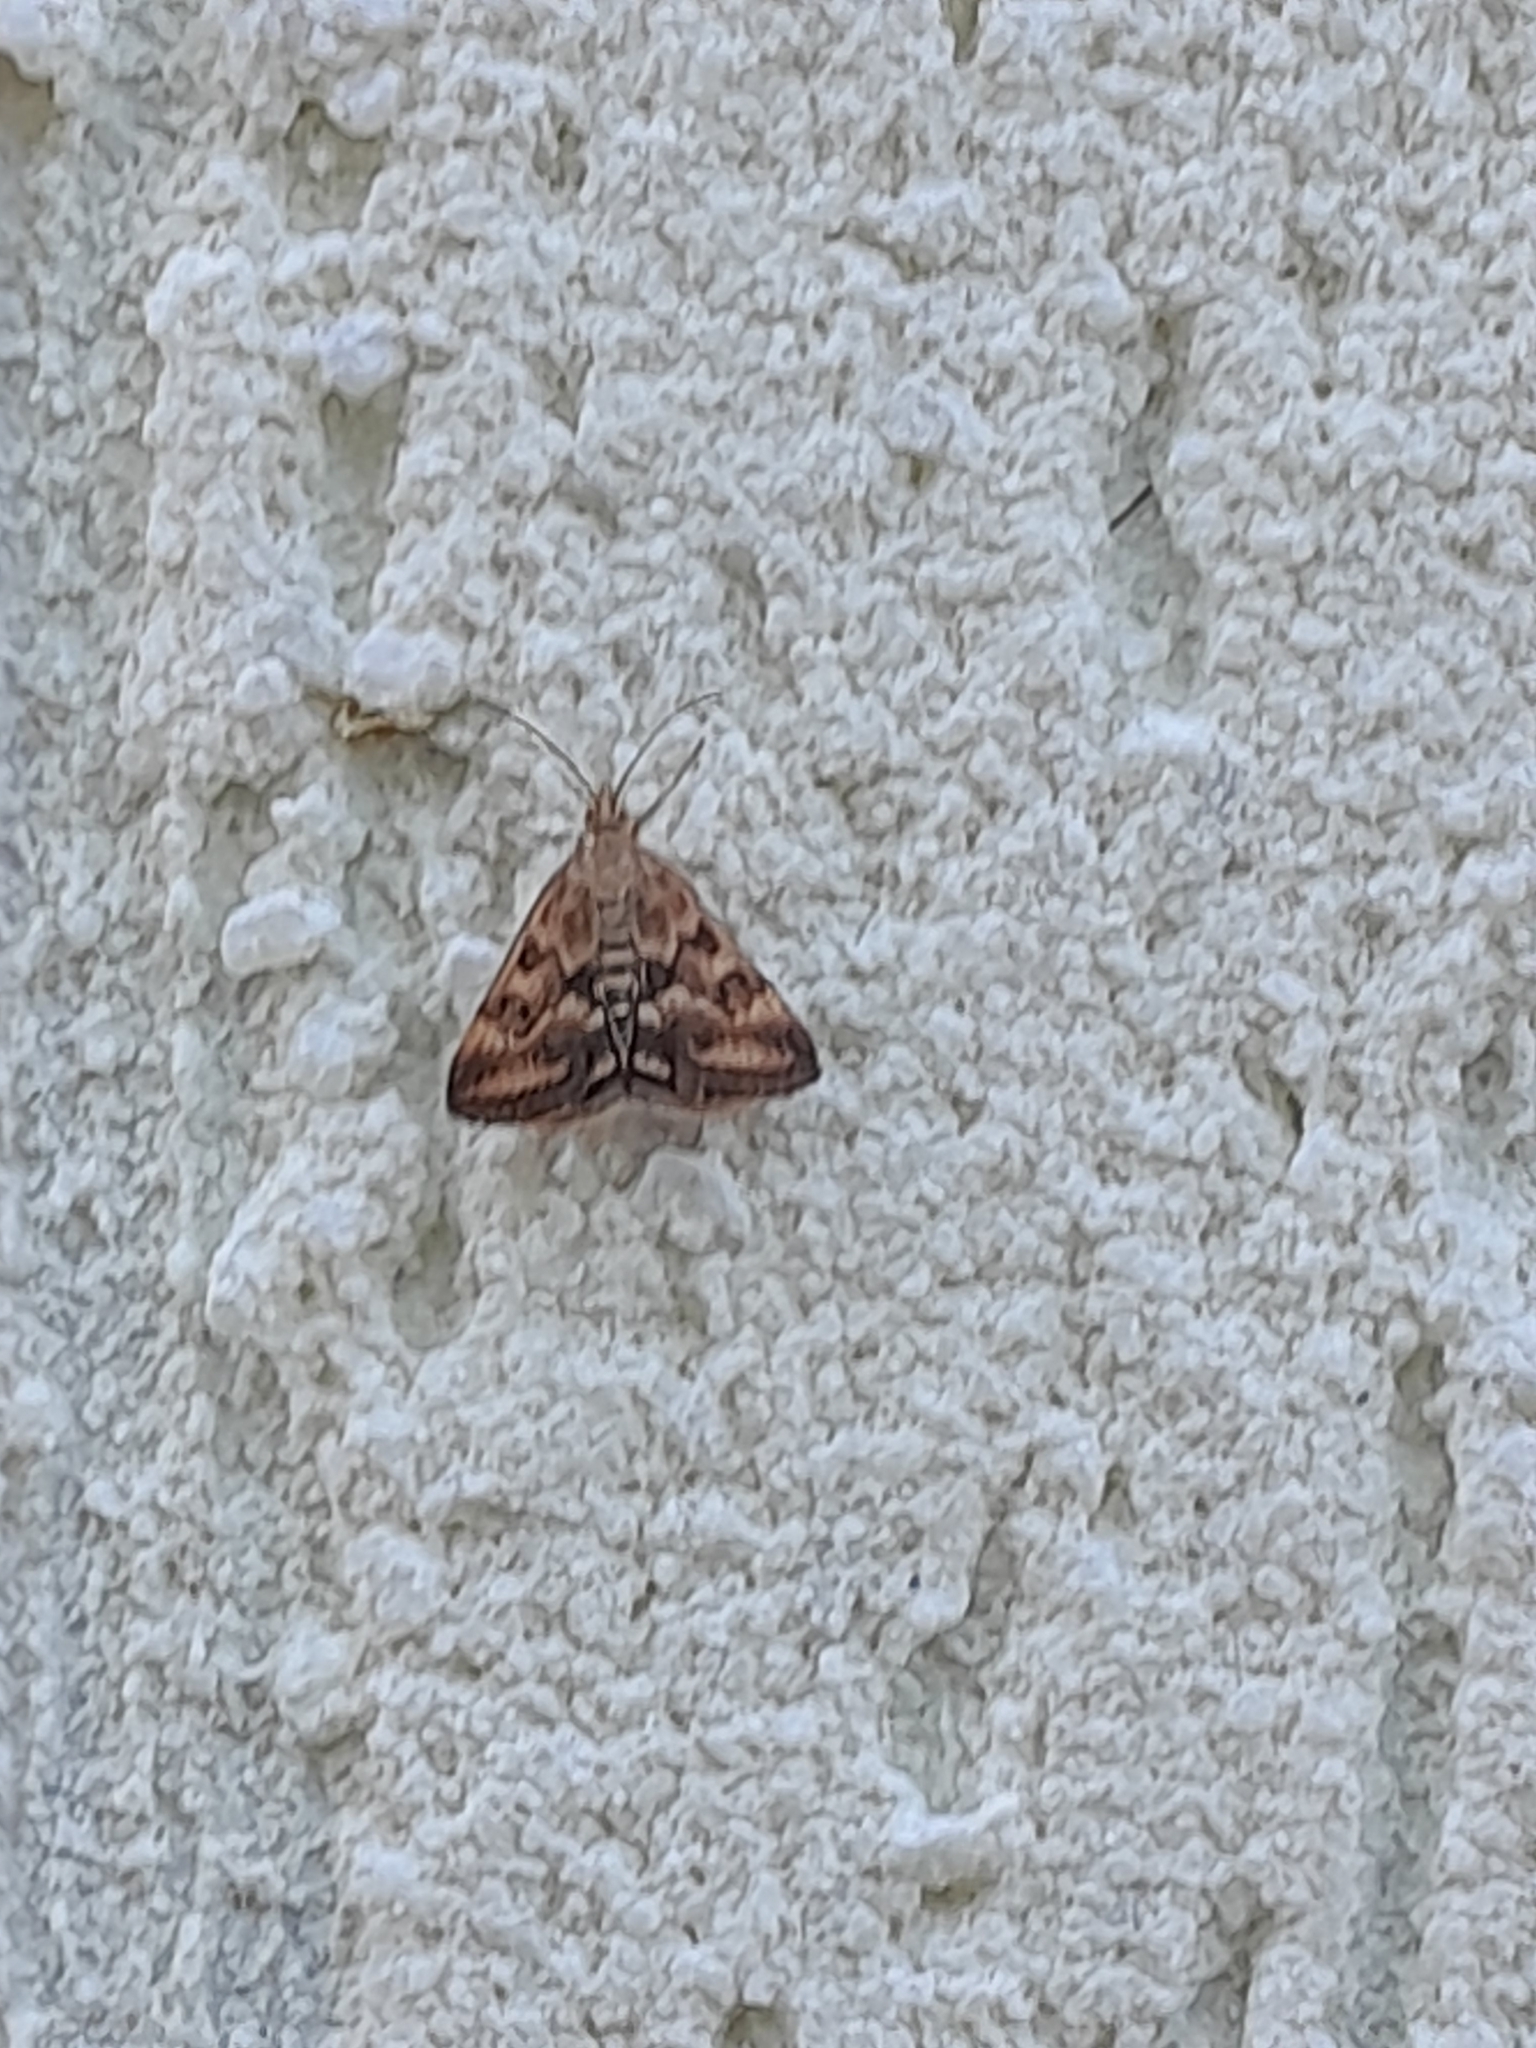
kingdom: Animalia
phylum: Arthropoda
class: Insecta
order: Lepidoptera
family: Crambidae
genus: Pyrausta
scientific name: Pyrausta despicata
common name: Straw-barred pearl
